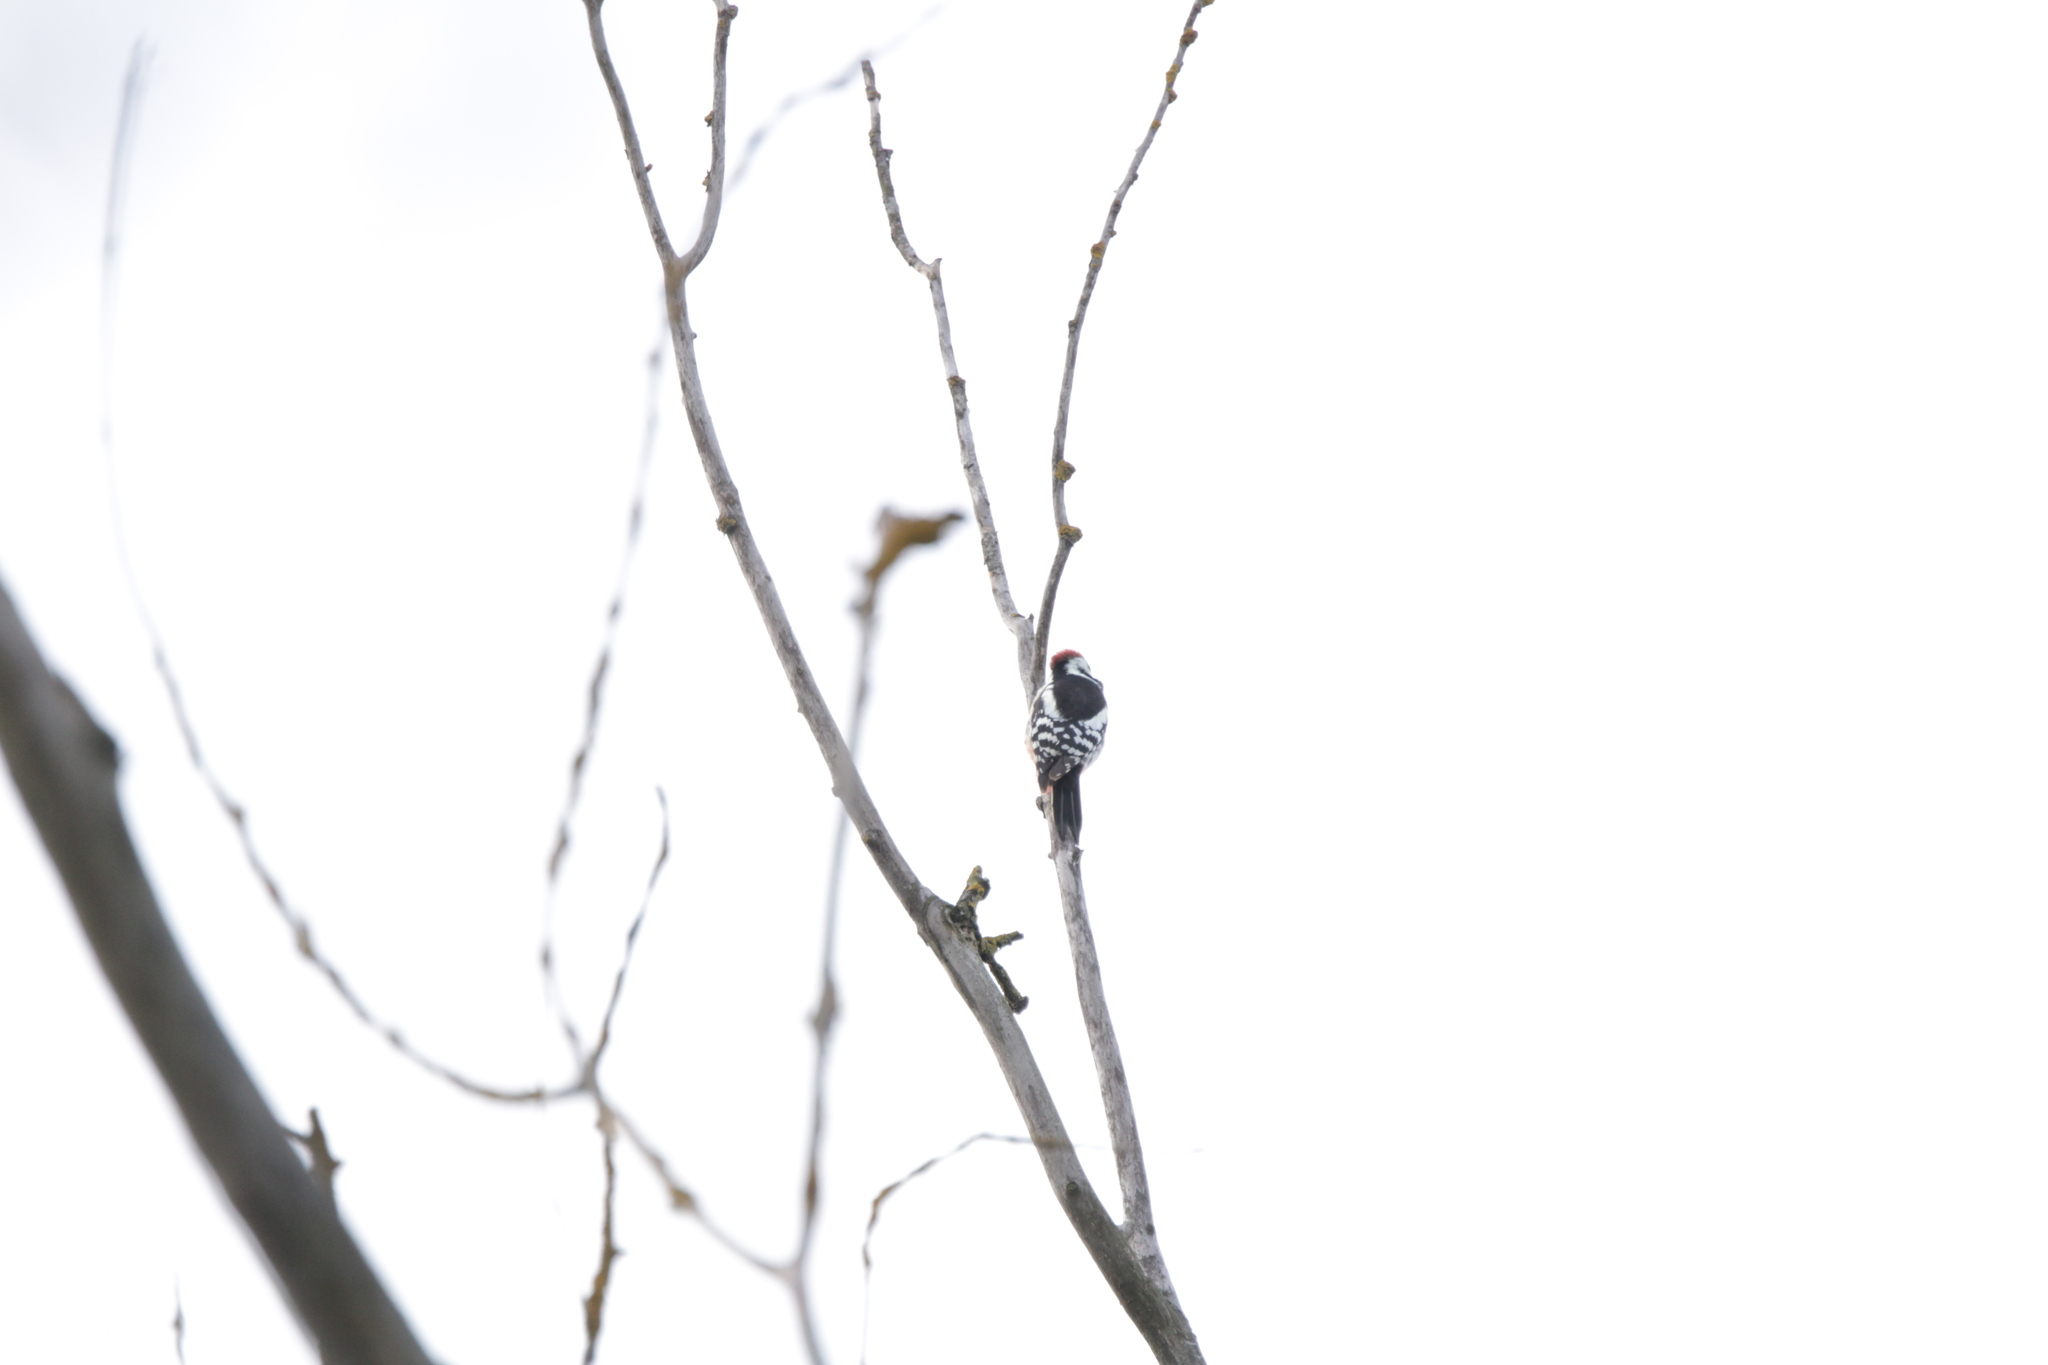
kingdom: Animalia
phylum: Chordata
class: Aves
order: Piciformes
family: Picidae
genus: Dendrocoptes
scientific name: Dendrocoptes medius
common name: Middle spotted woodpecker
